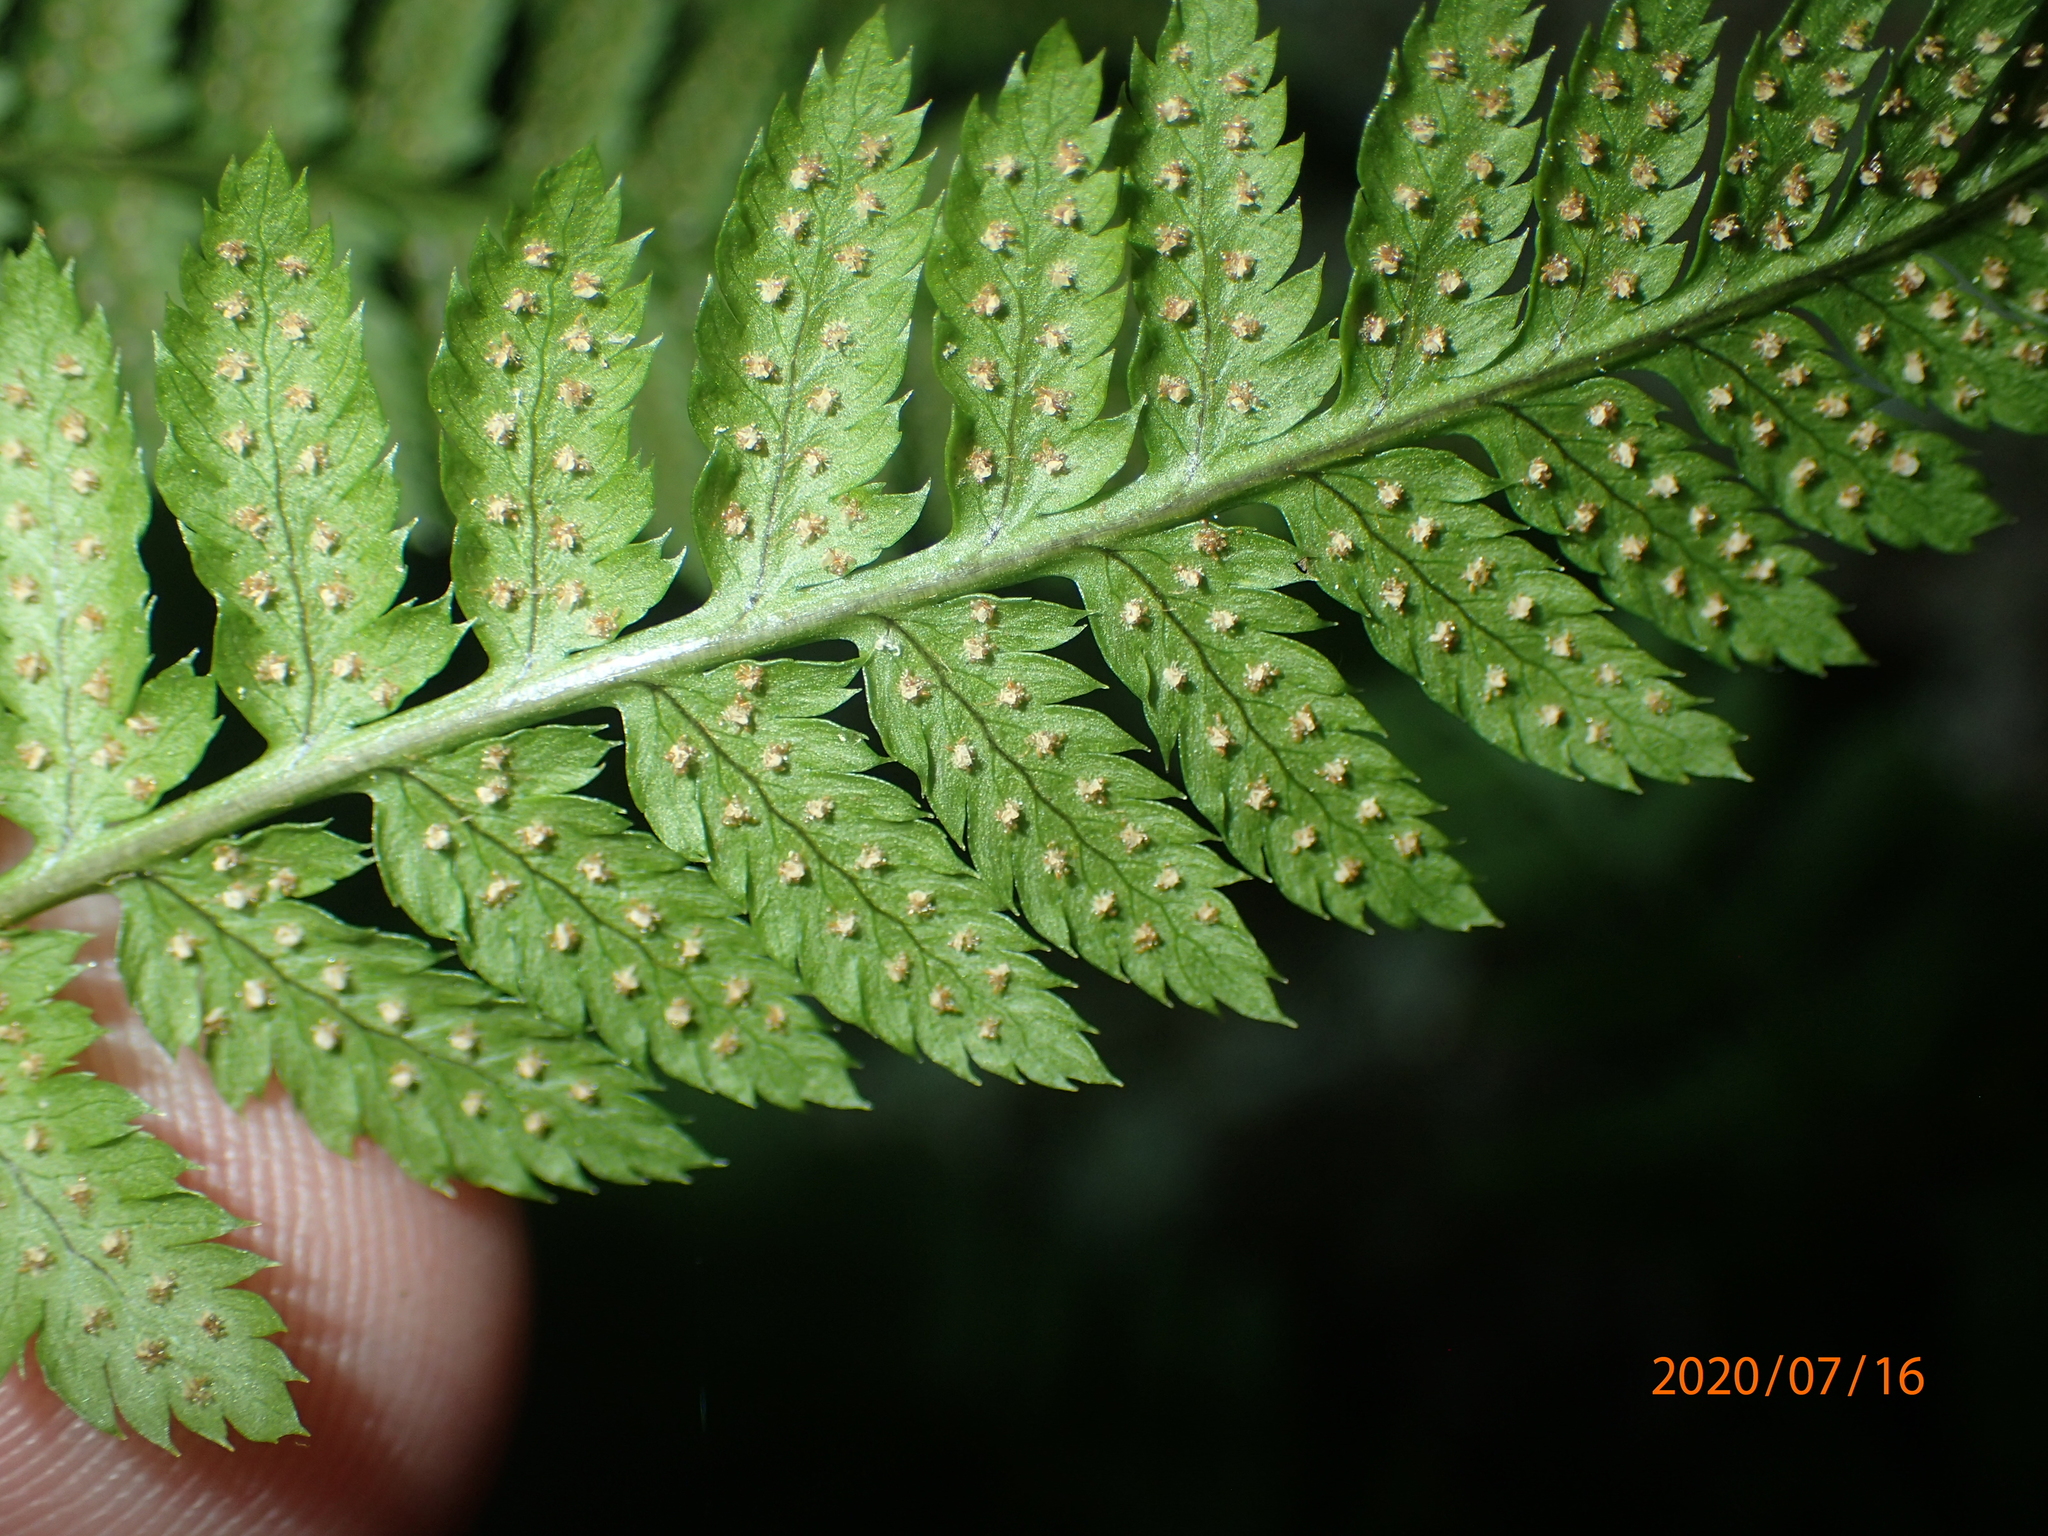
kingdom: Plantae
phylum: Tracheophyta
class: Polypodiopsida
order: Polypodiales
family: Dryopteridaceae
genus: Dryopteris
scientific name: Dryopteris carthusiana
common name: Narrow buckler-fern
